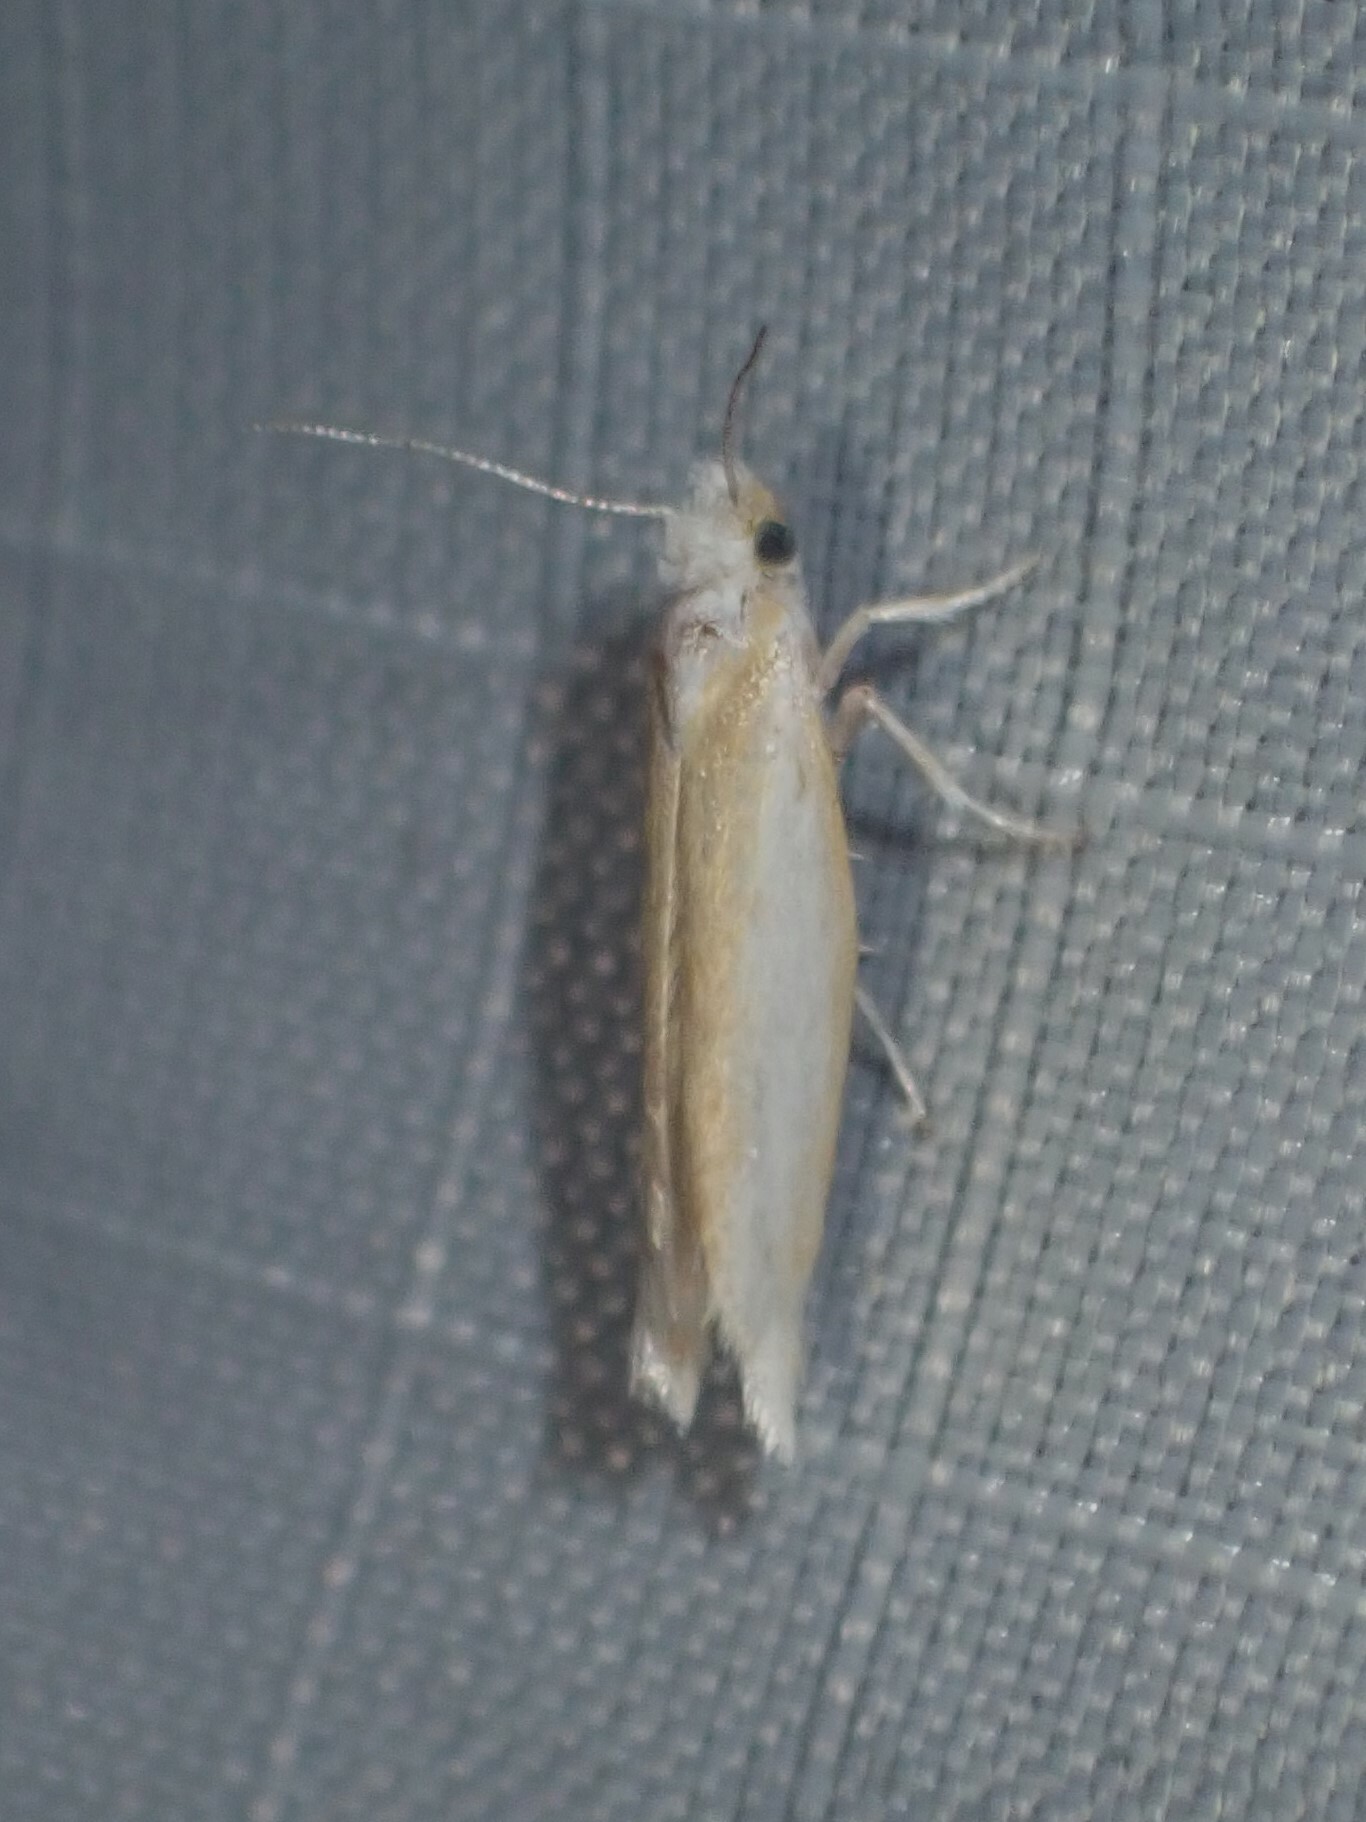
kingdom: Animalia
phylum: Arthropoda
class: Insecta
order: Lepidoptera
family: Yponomeutidae
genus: Zelleria
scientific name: Zelleria haimbachi
